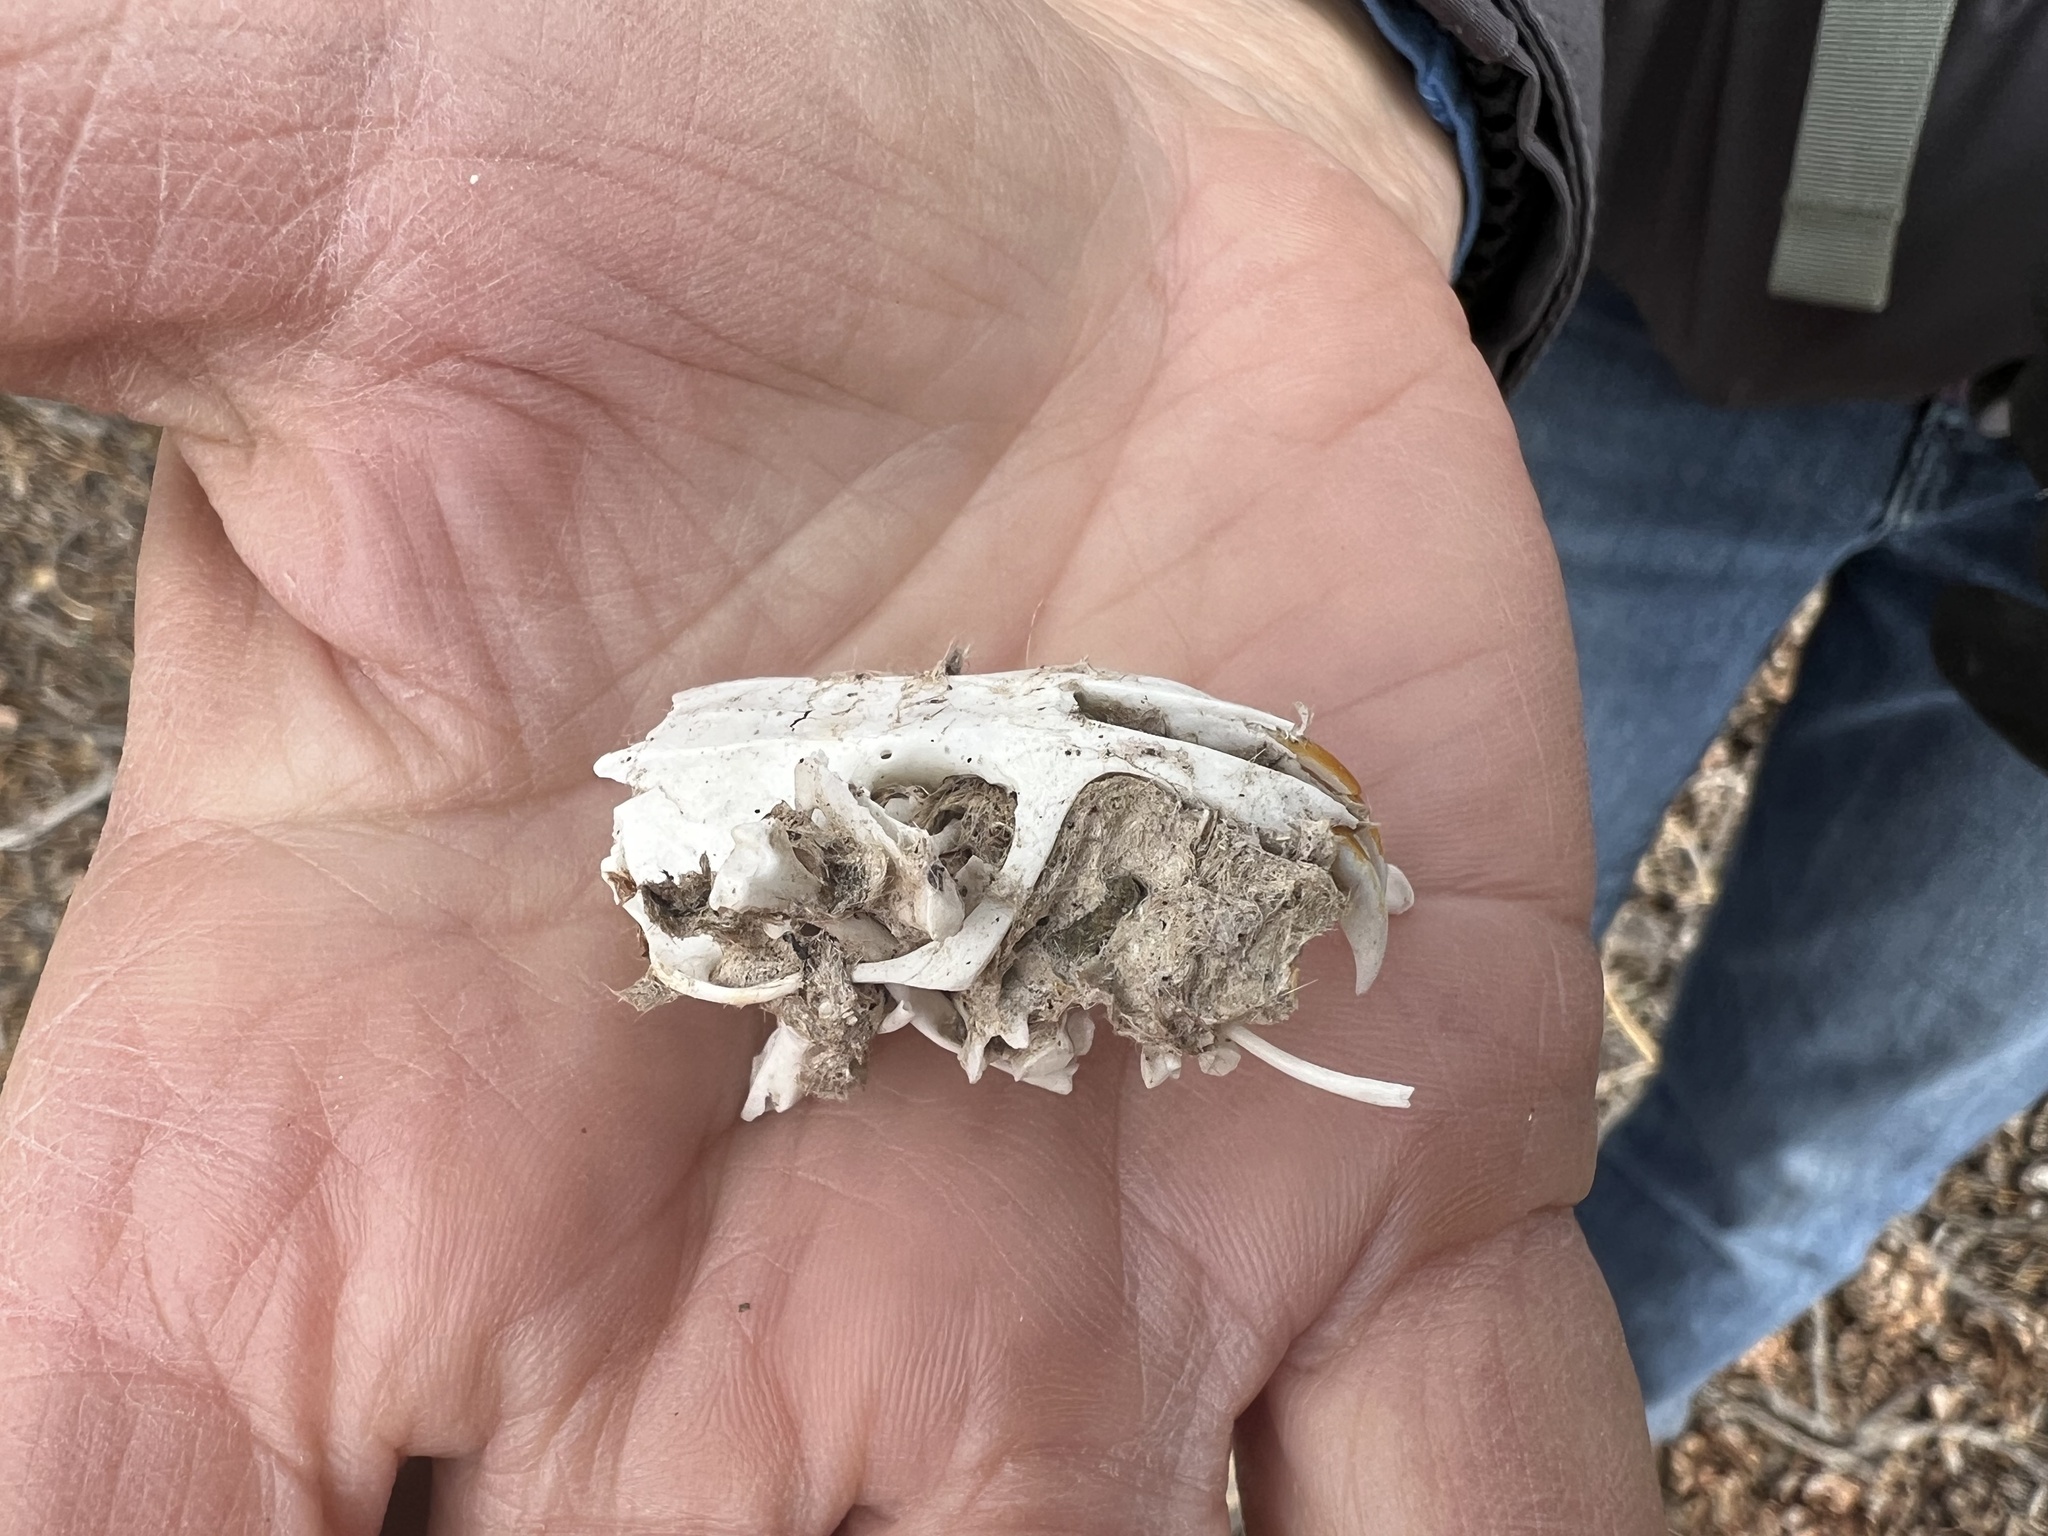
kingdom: Animalia
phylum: Chordata
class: Mammalia
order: Rodentia
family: Geomyidae
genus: Thomomys
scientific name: Thomomys bottae
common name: Botta's pocket gopher
